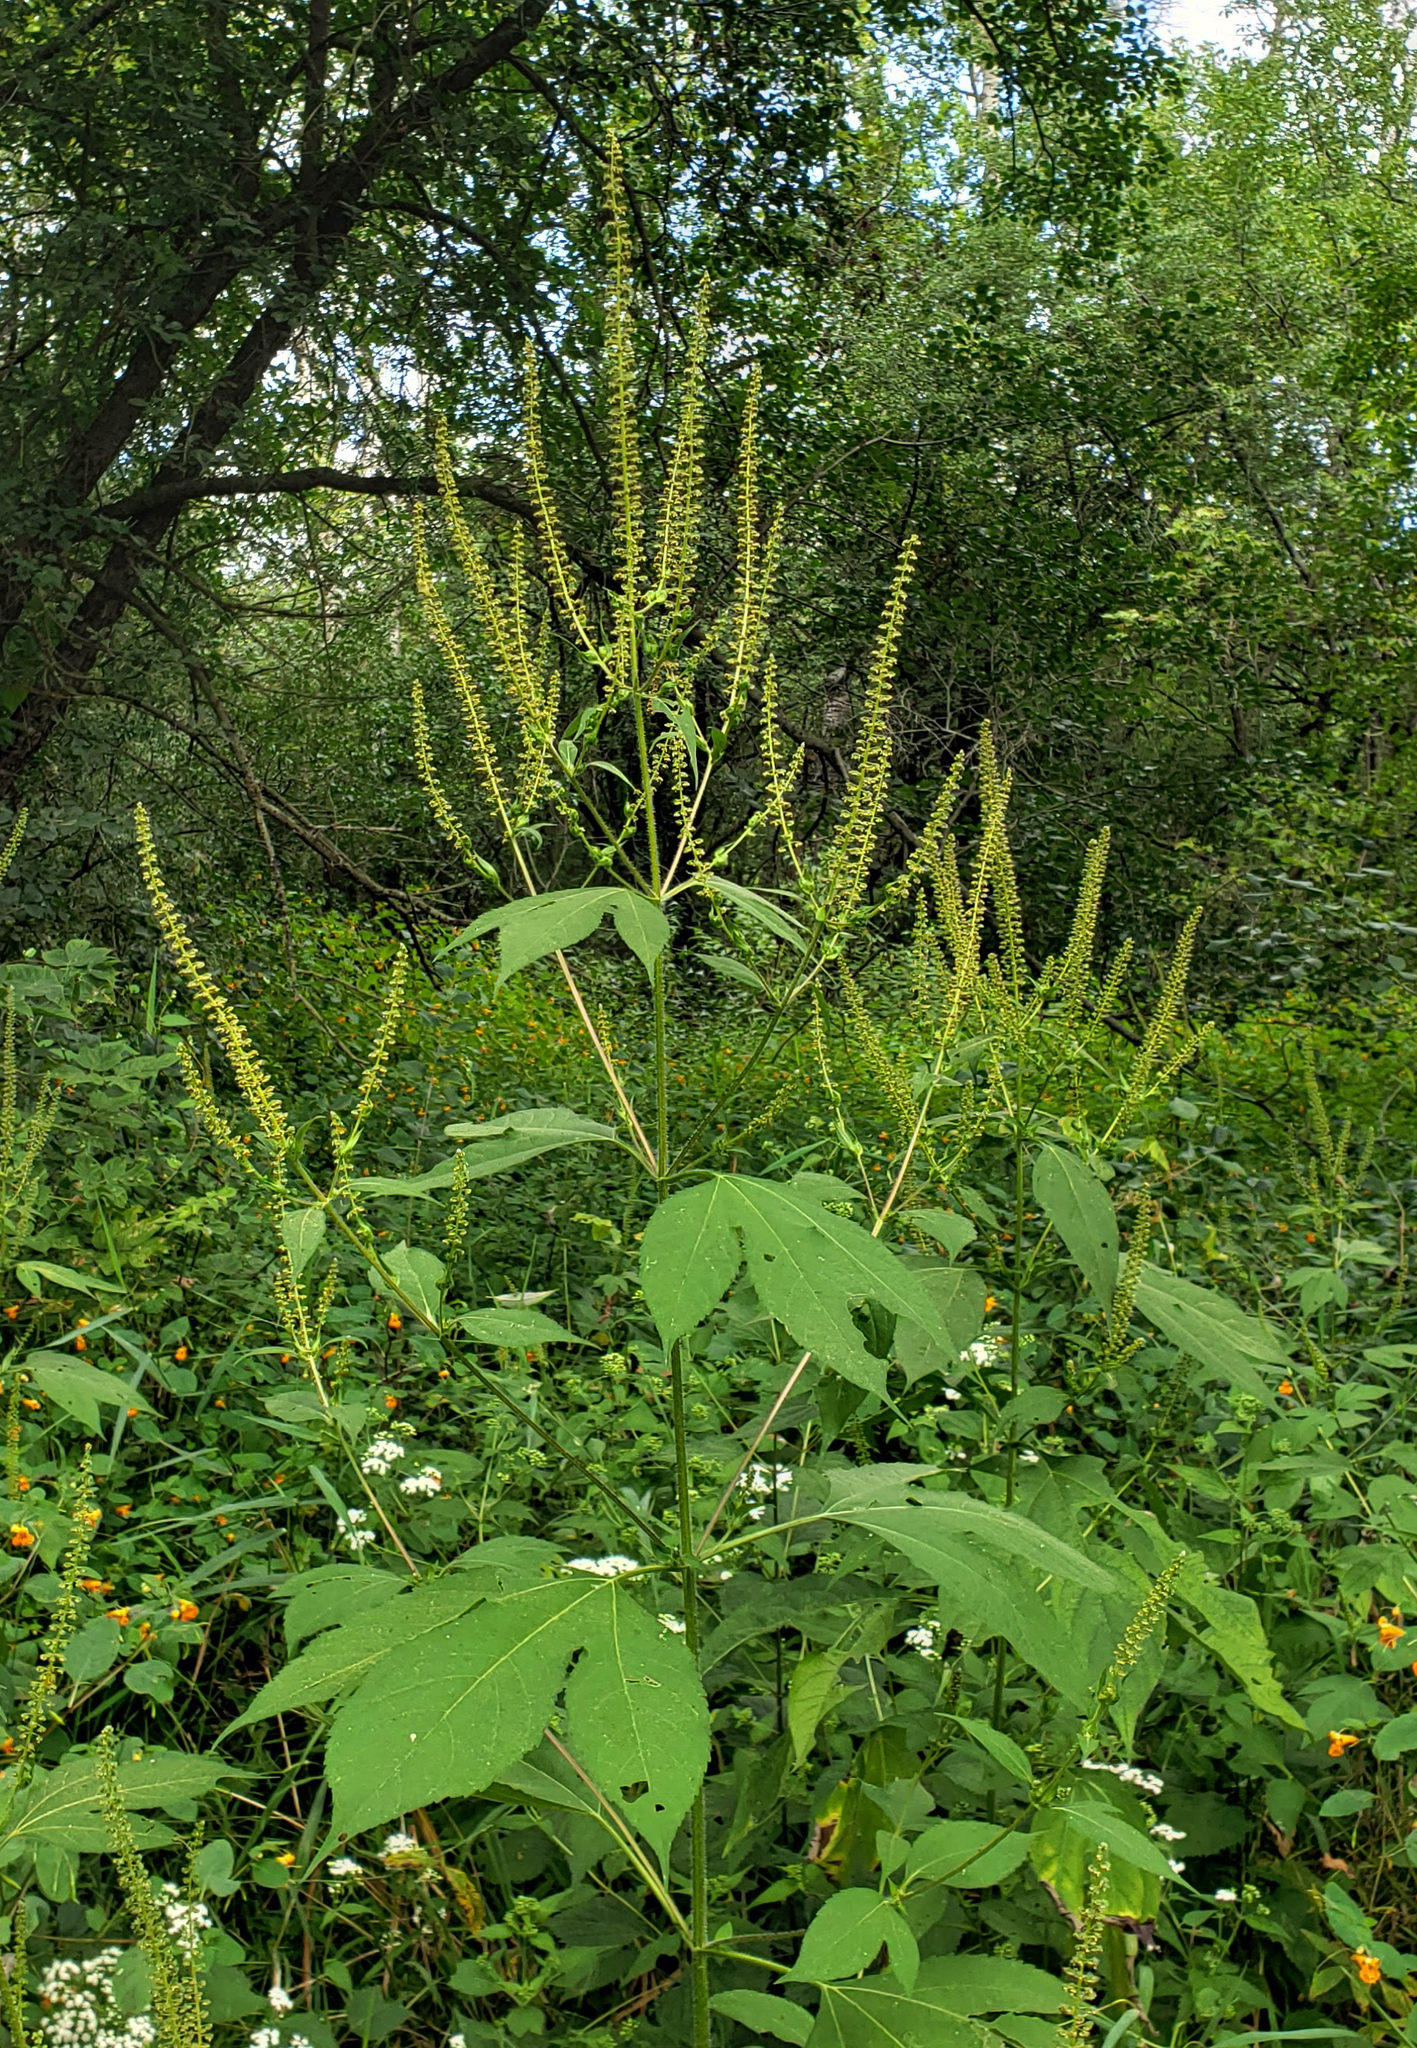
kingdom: Plantae
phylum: Tracheophyta
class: Magnoliopsida
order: Asterales
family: Asteraceae
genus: Ambrosia
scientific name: Ambrosia trifida
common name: Giant ragweed
